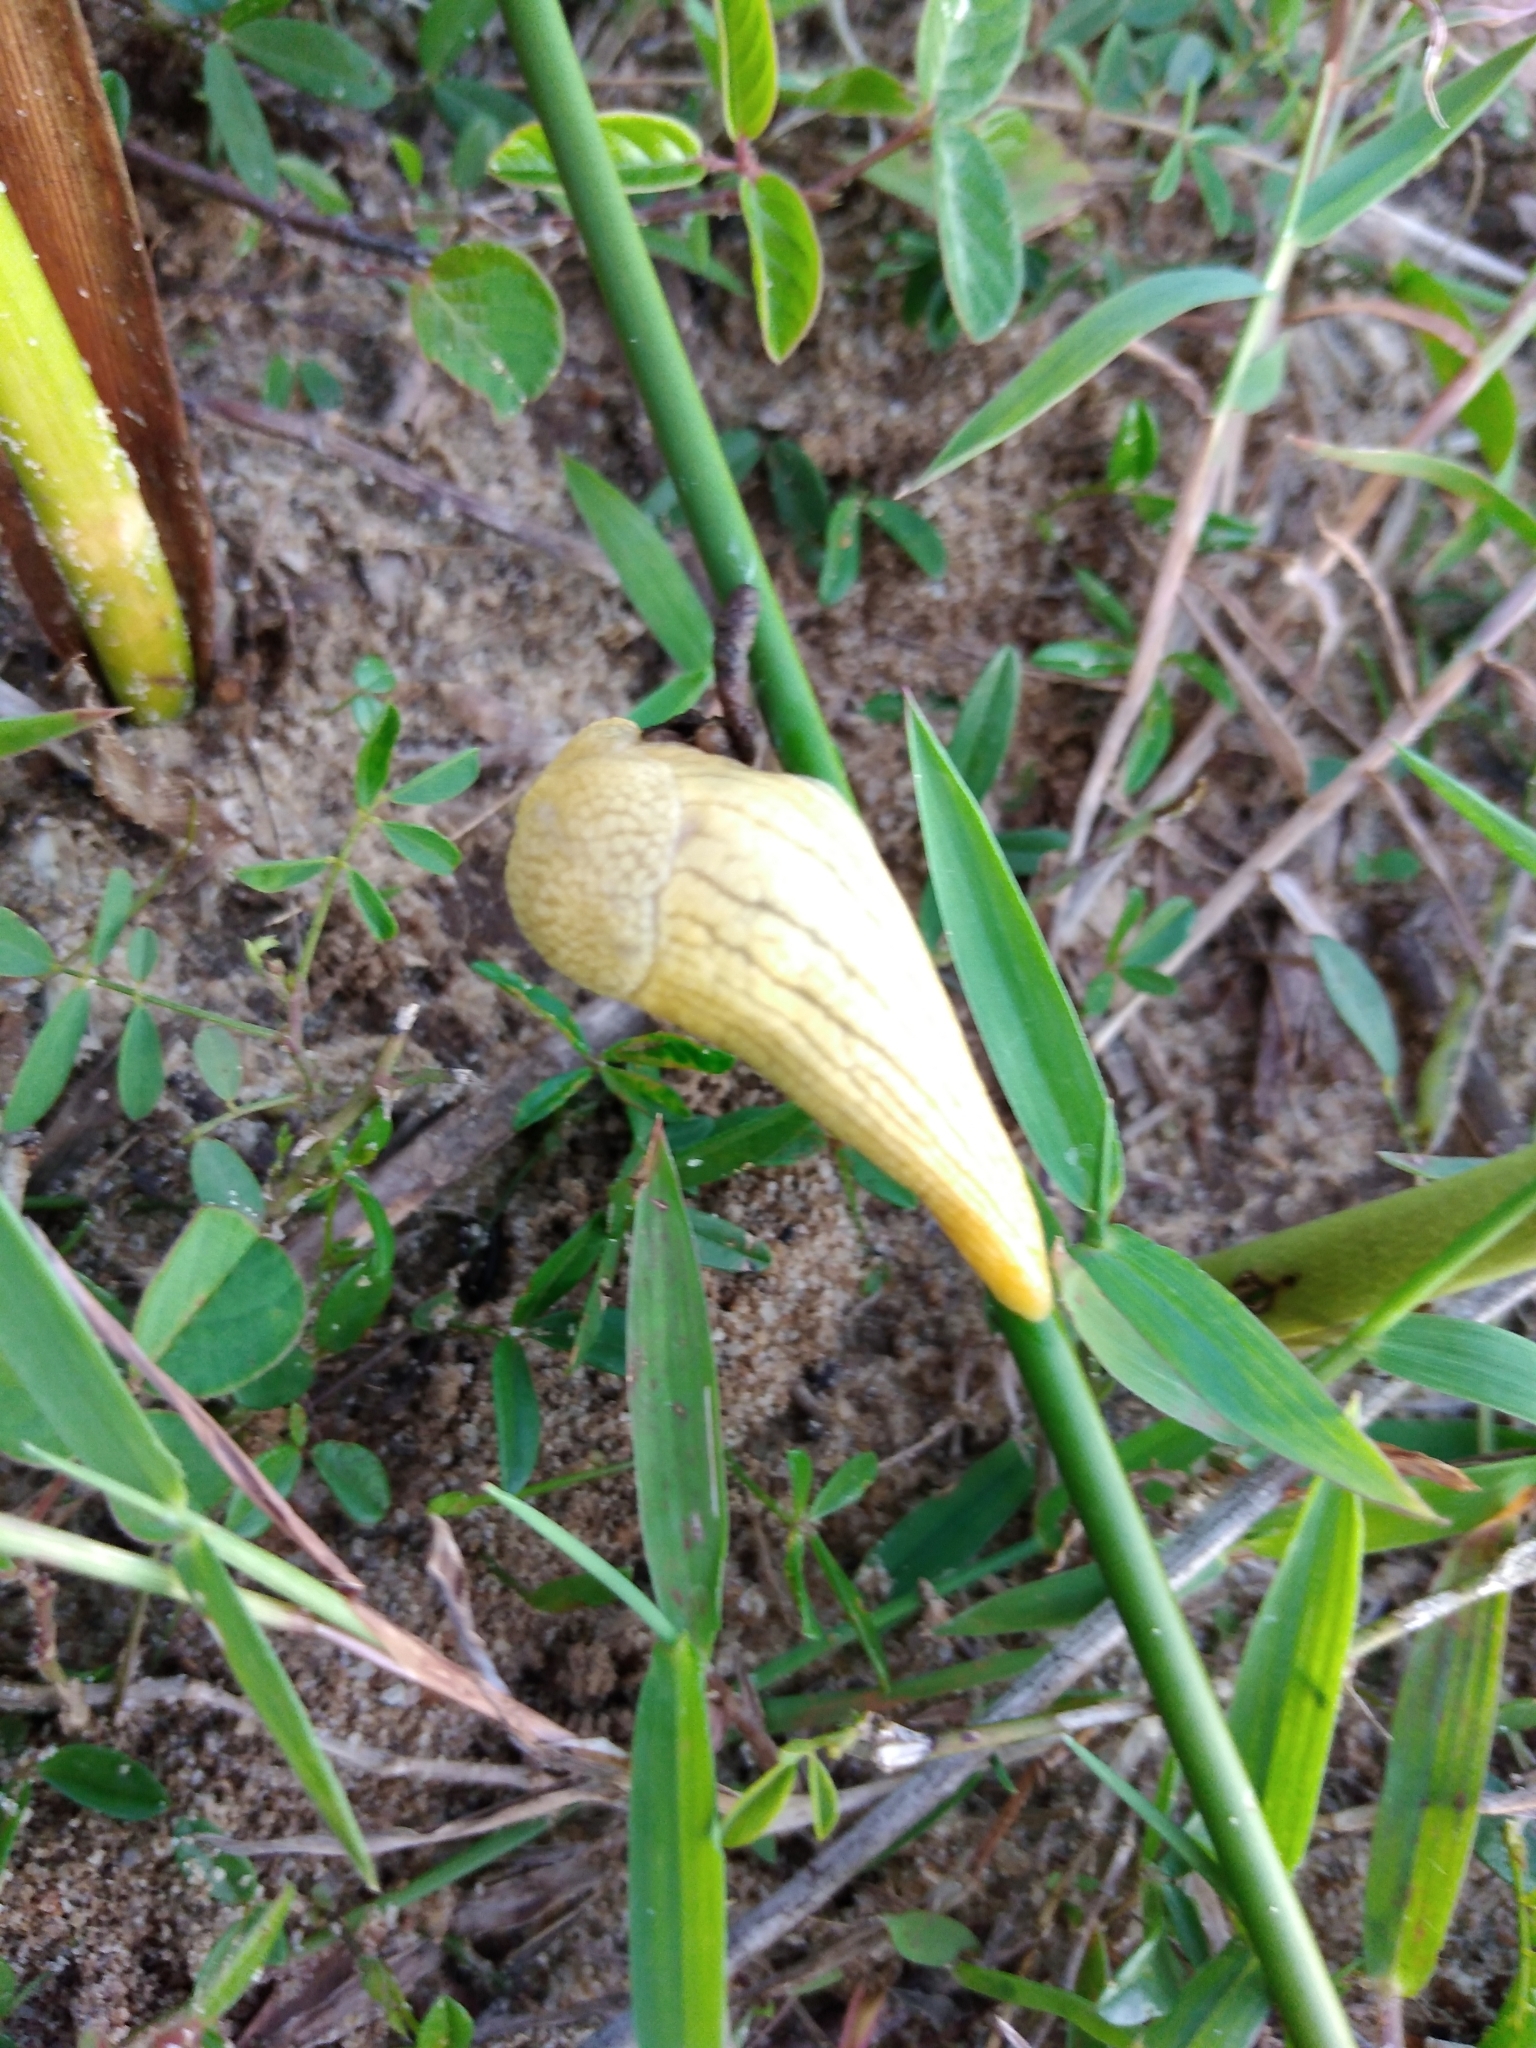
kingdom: Animalia
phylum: Mollusca
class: Gastropoda
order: Stylommatophora
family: Urocyclidae
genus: Elisolimax
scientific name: Elisolimax flavescens
